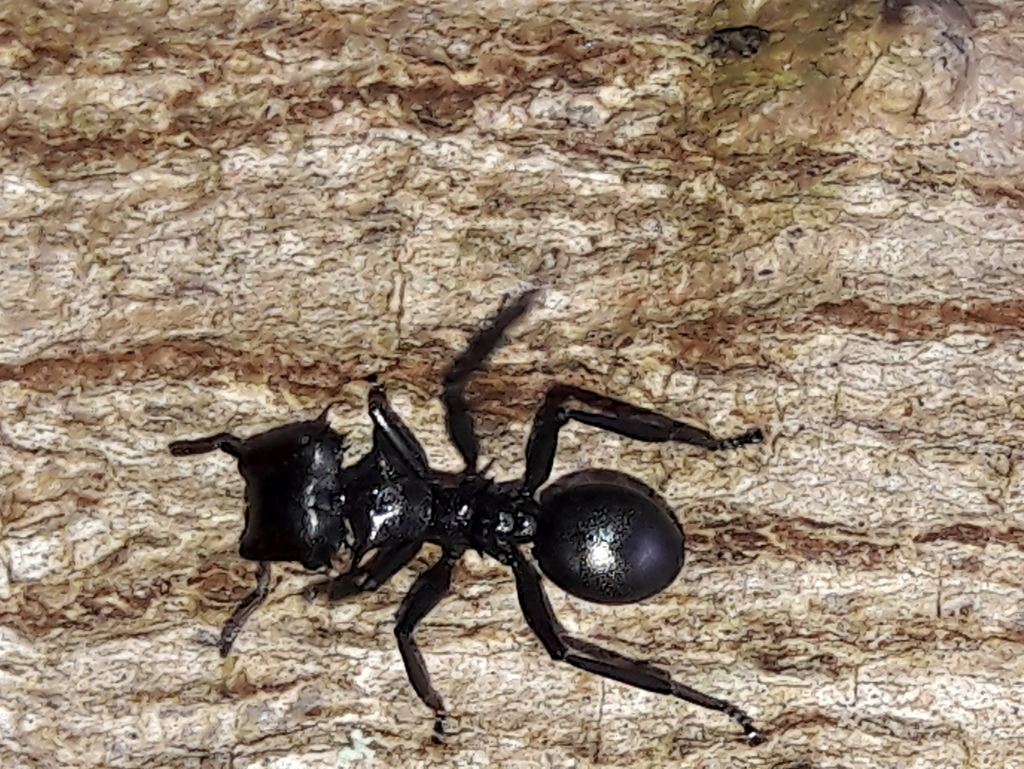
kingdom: Animalia
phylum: Arthropoda
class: Insecta
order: Hymenoptera
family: Formicidae
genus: Cephalotes
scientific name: Cephalotes atratus
